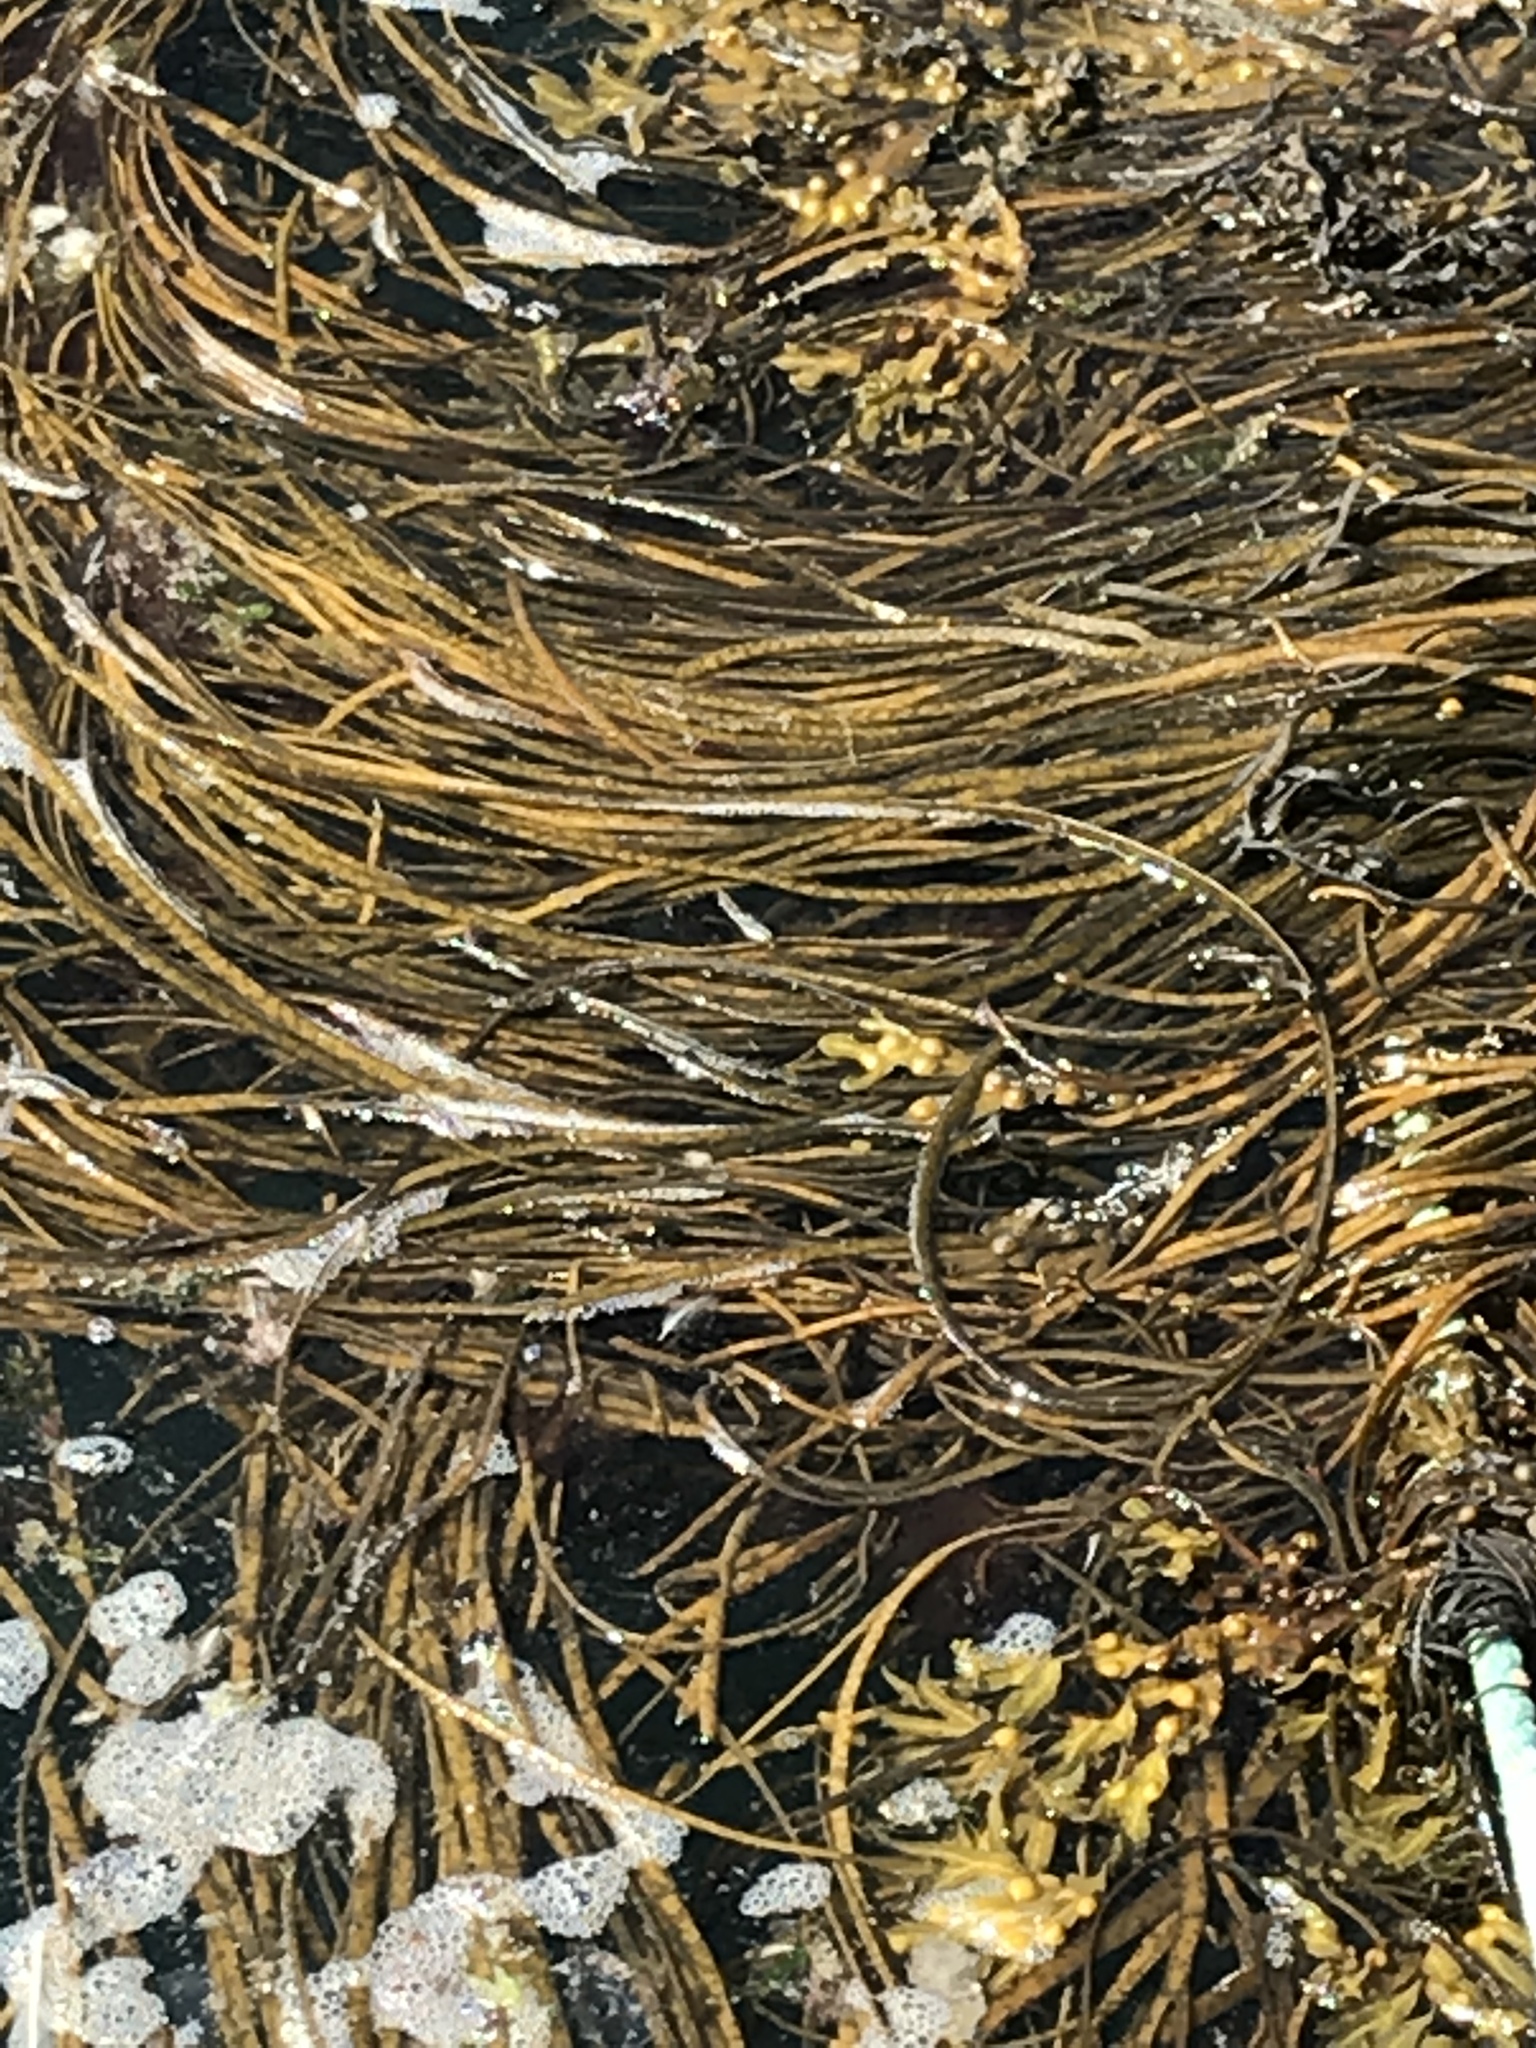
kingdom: Chromista
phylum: Ochrophyta
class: Phaeophyceae
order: Fucales
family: Himanthaliaceae
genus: Himanthalia
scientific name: Himanthalia elongata
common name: Sea-thong
